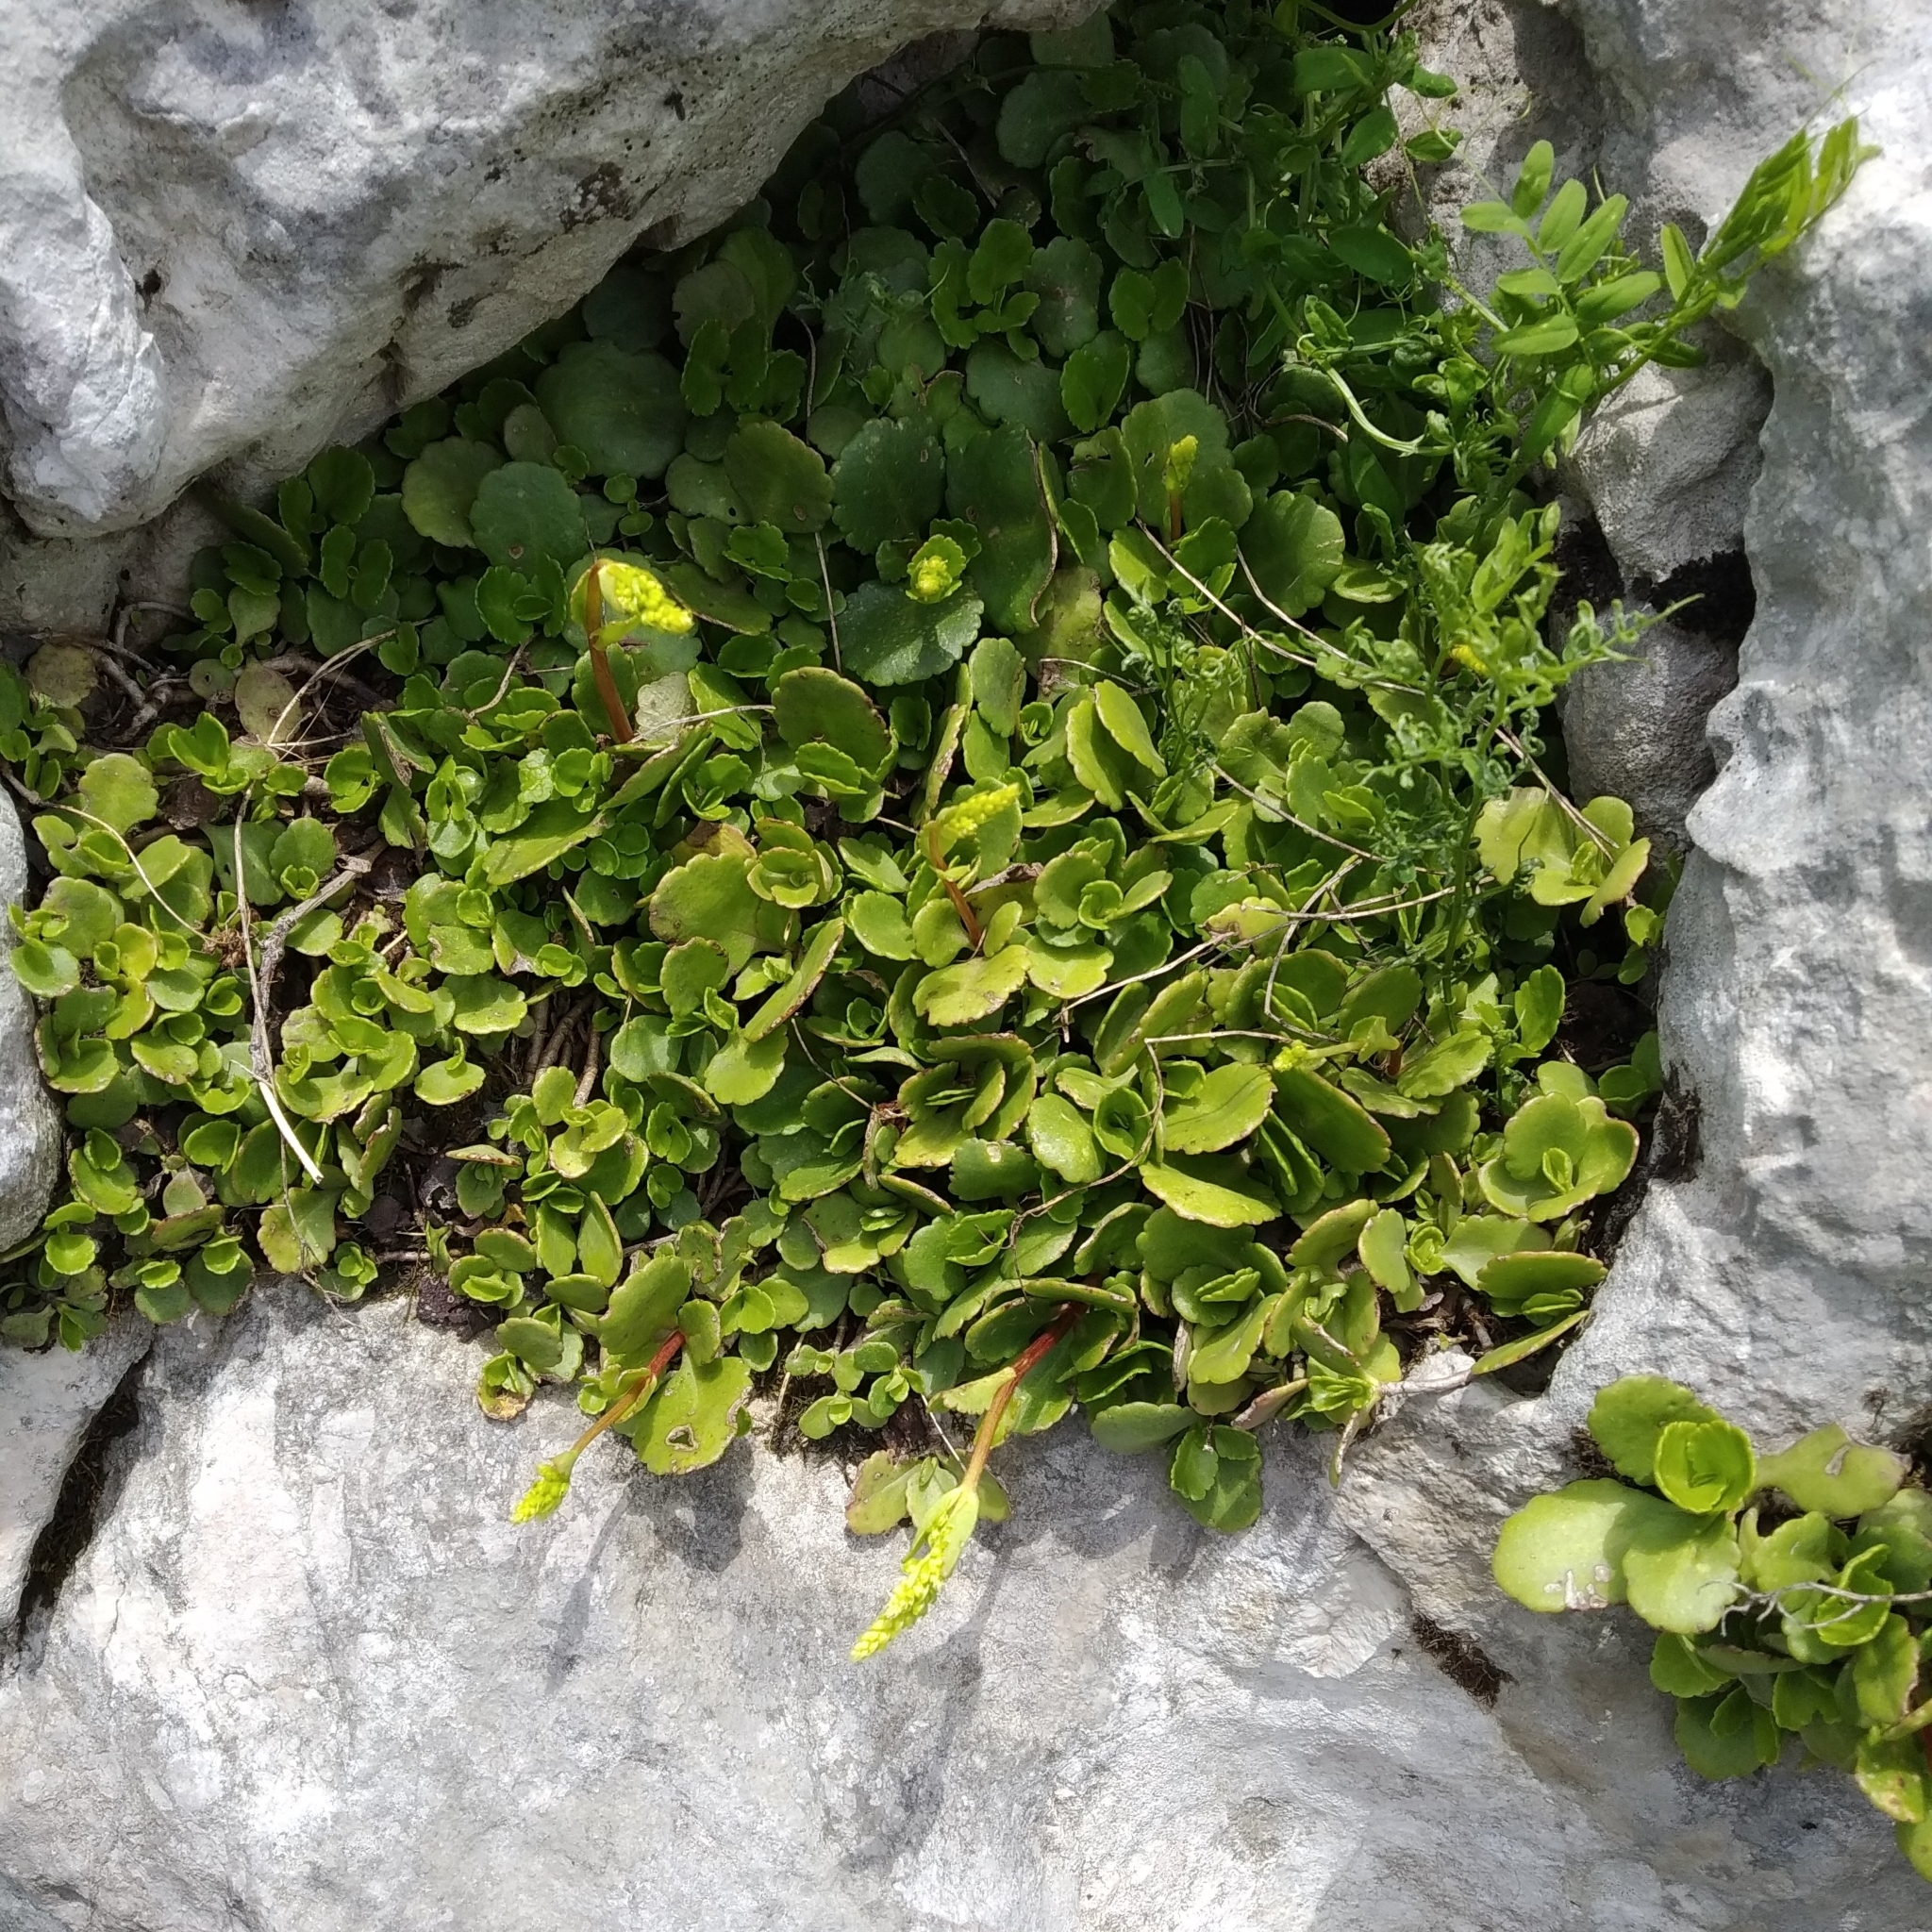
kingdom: Plantae
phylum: Tracheophyta
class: Magnoliopsida
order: Saxifragales
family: Crassulaceae
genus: Umbilicus
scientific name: Umbilicus oppositifolius
